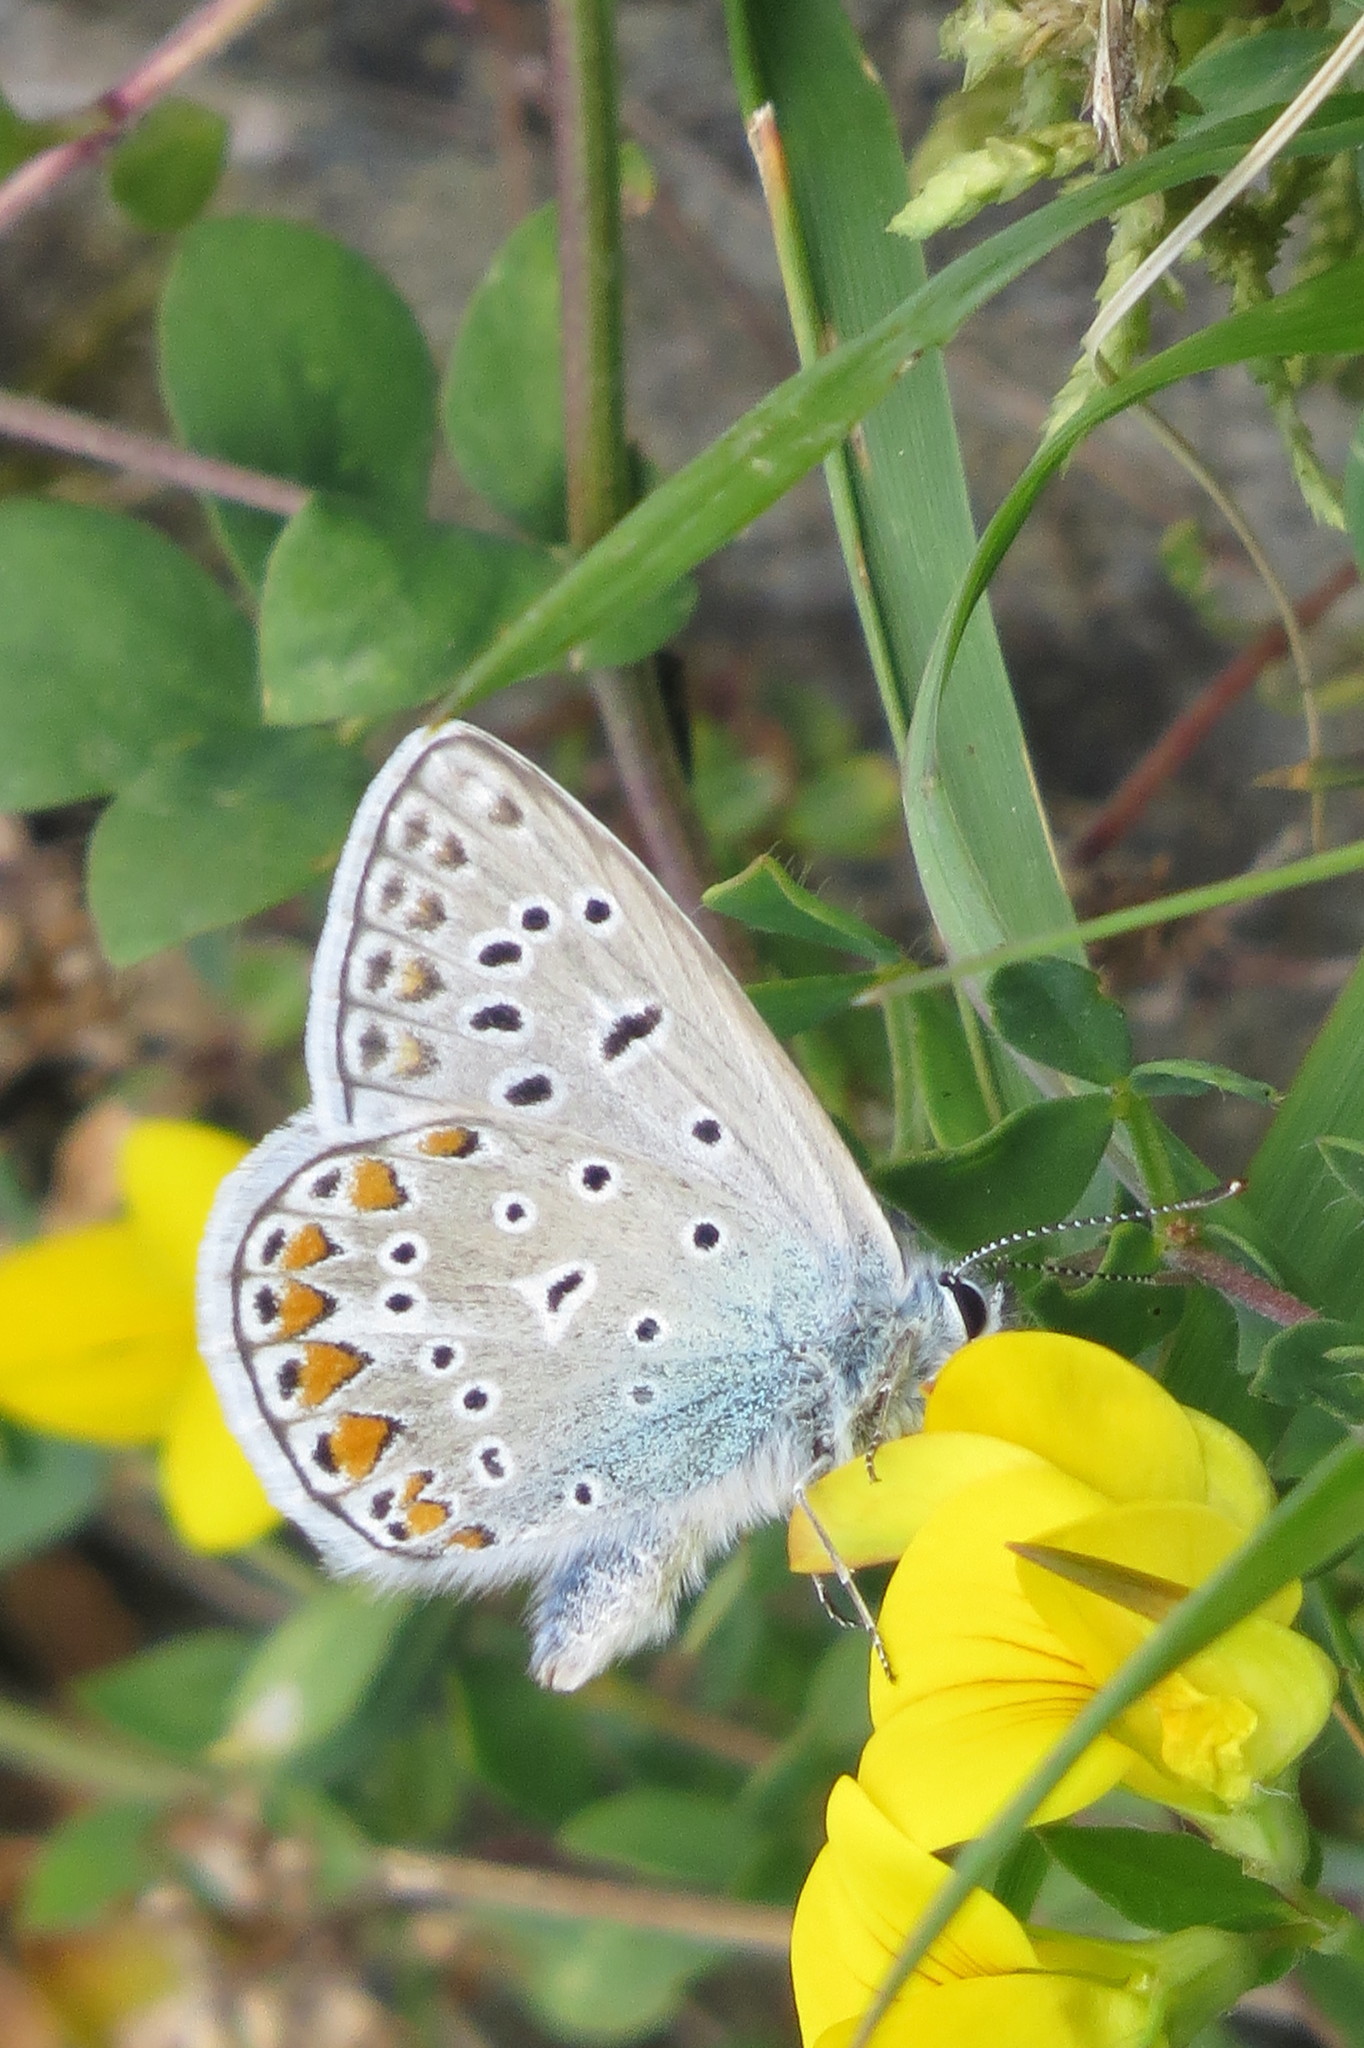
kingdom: Animalia
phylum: Arthropoda
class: Insecta
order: Lepidoptera
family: Lycaenidae
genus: Polyommatus
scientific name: Polyommatus icarus
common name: Common blue
